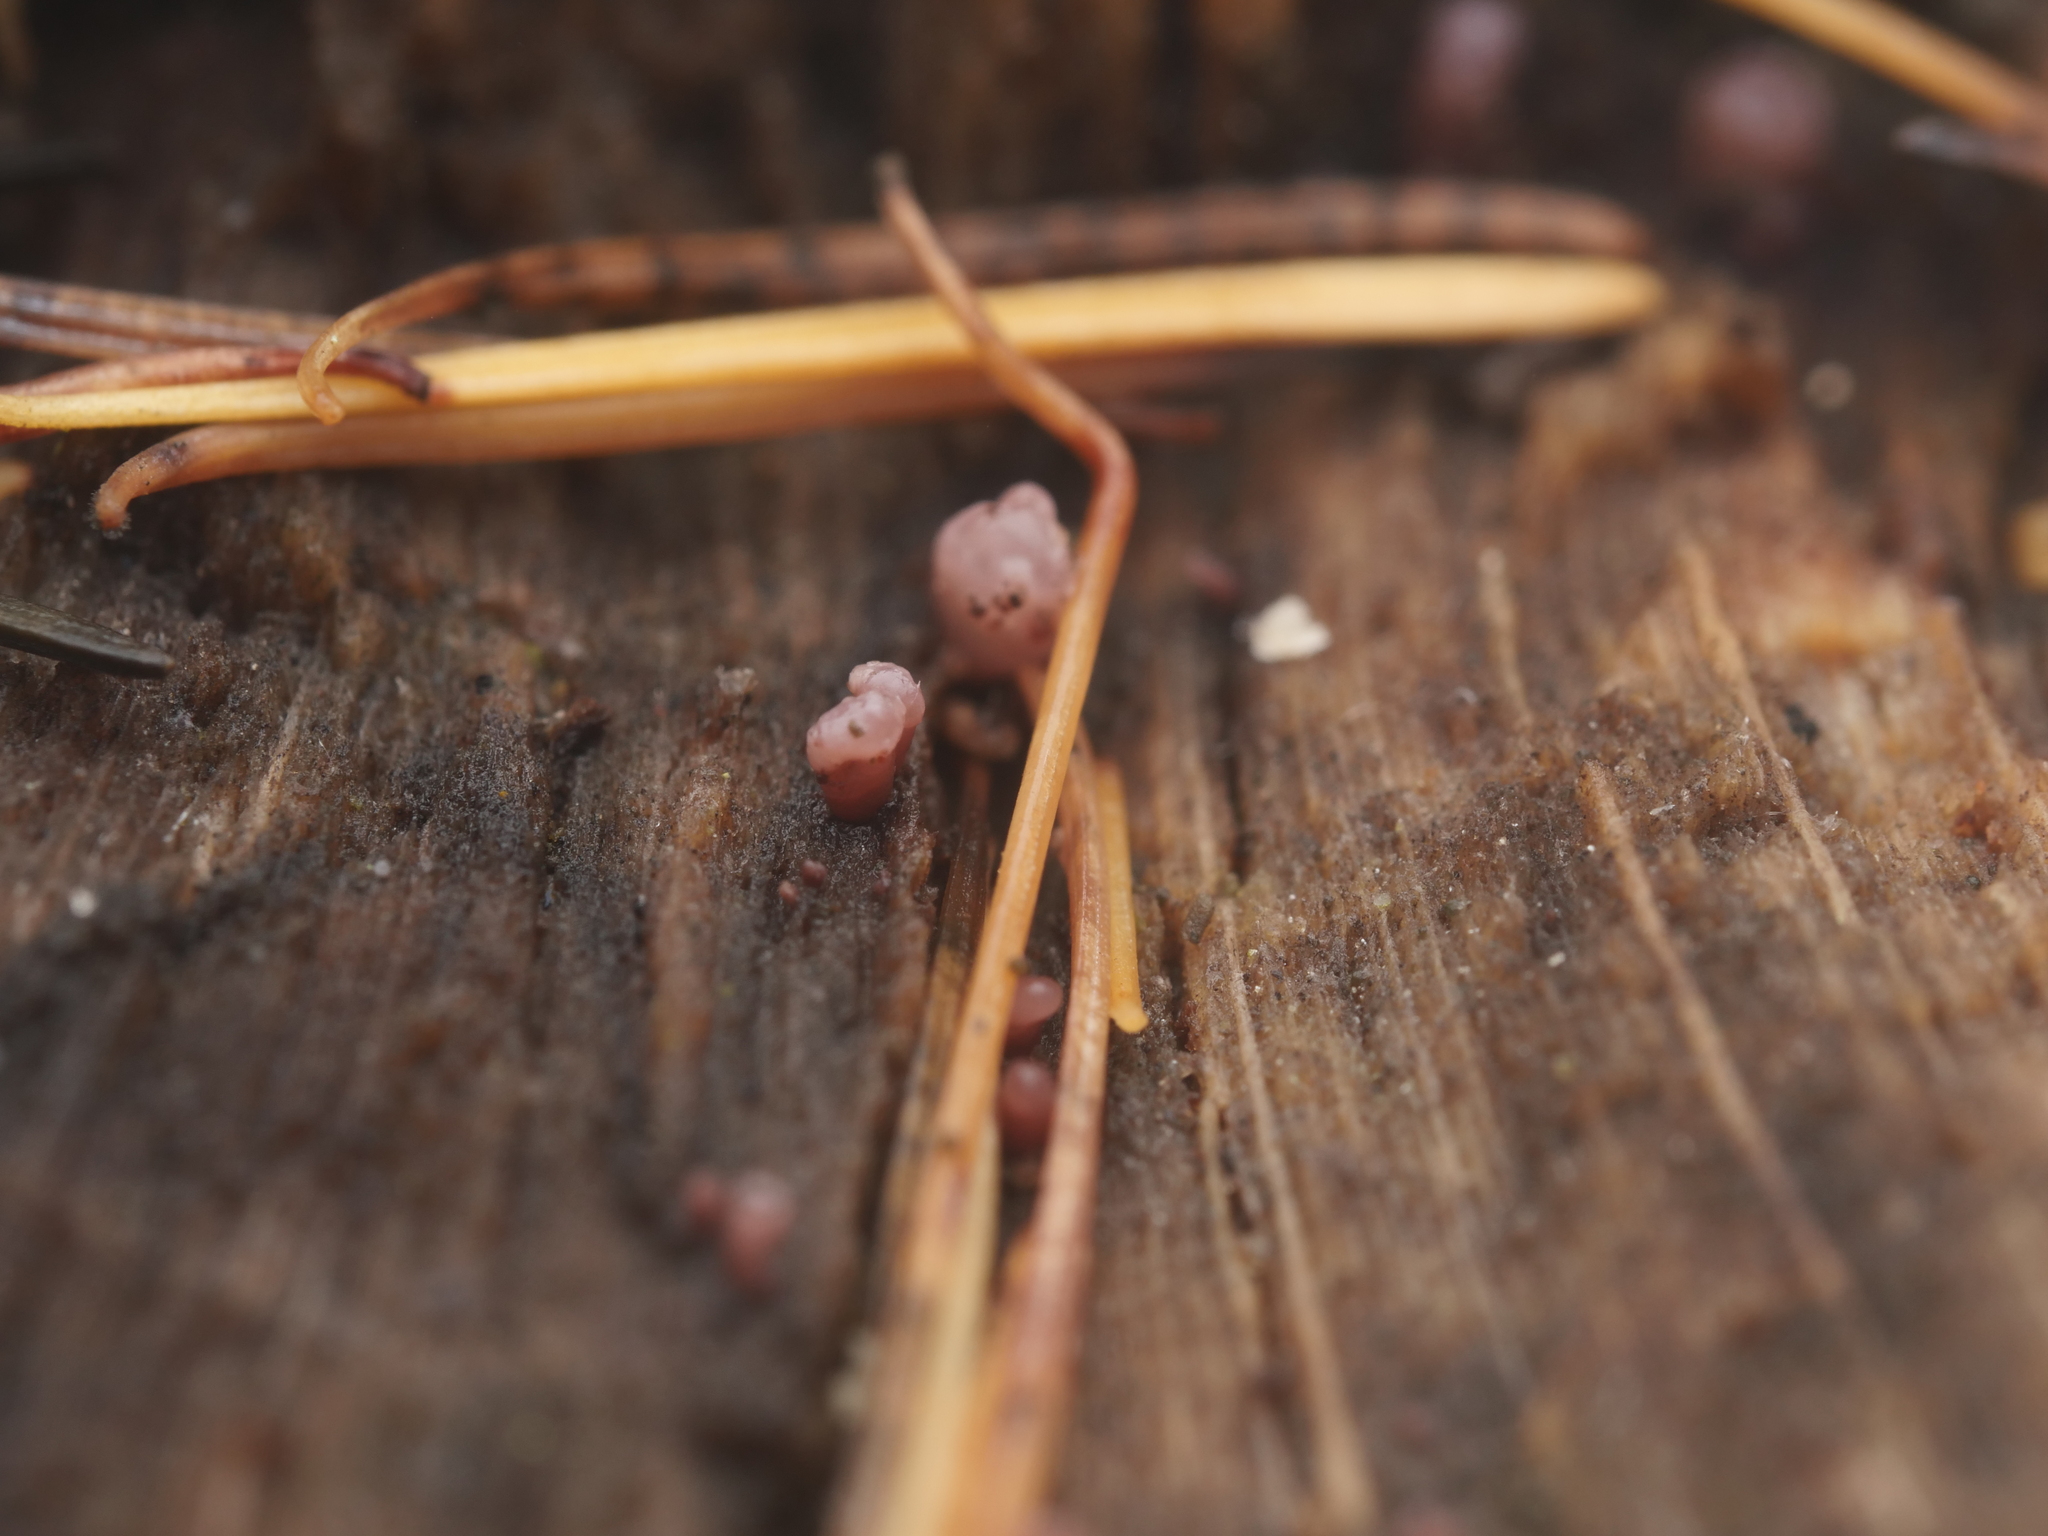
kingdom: Fungi
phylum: Ascomycota
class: Leotiomycetes
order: Helotiales
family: Gelatinodiscaceae
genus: Ascocoryne
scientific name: Ascocoryne sarcoides
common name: Purple jellydisc
